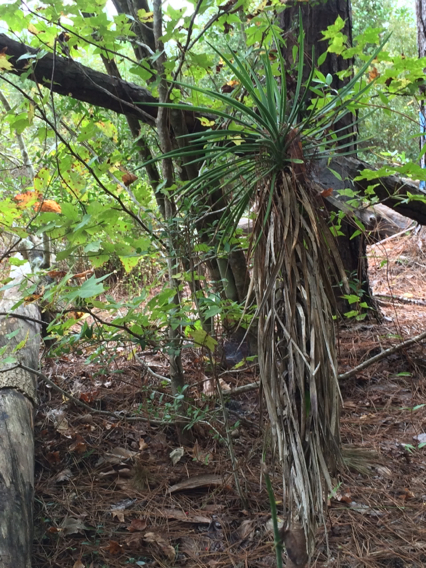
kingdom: Plantae
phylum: Tracheophyta
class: Liliopsida
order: Asparagales
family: Asparagaceae
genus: Yucca
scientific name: Yucca aloifolia
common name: Aloe yucca
